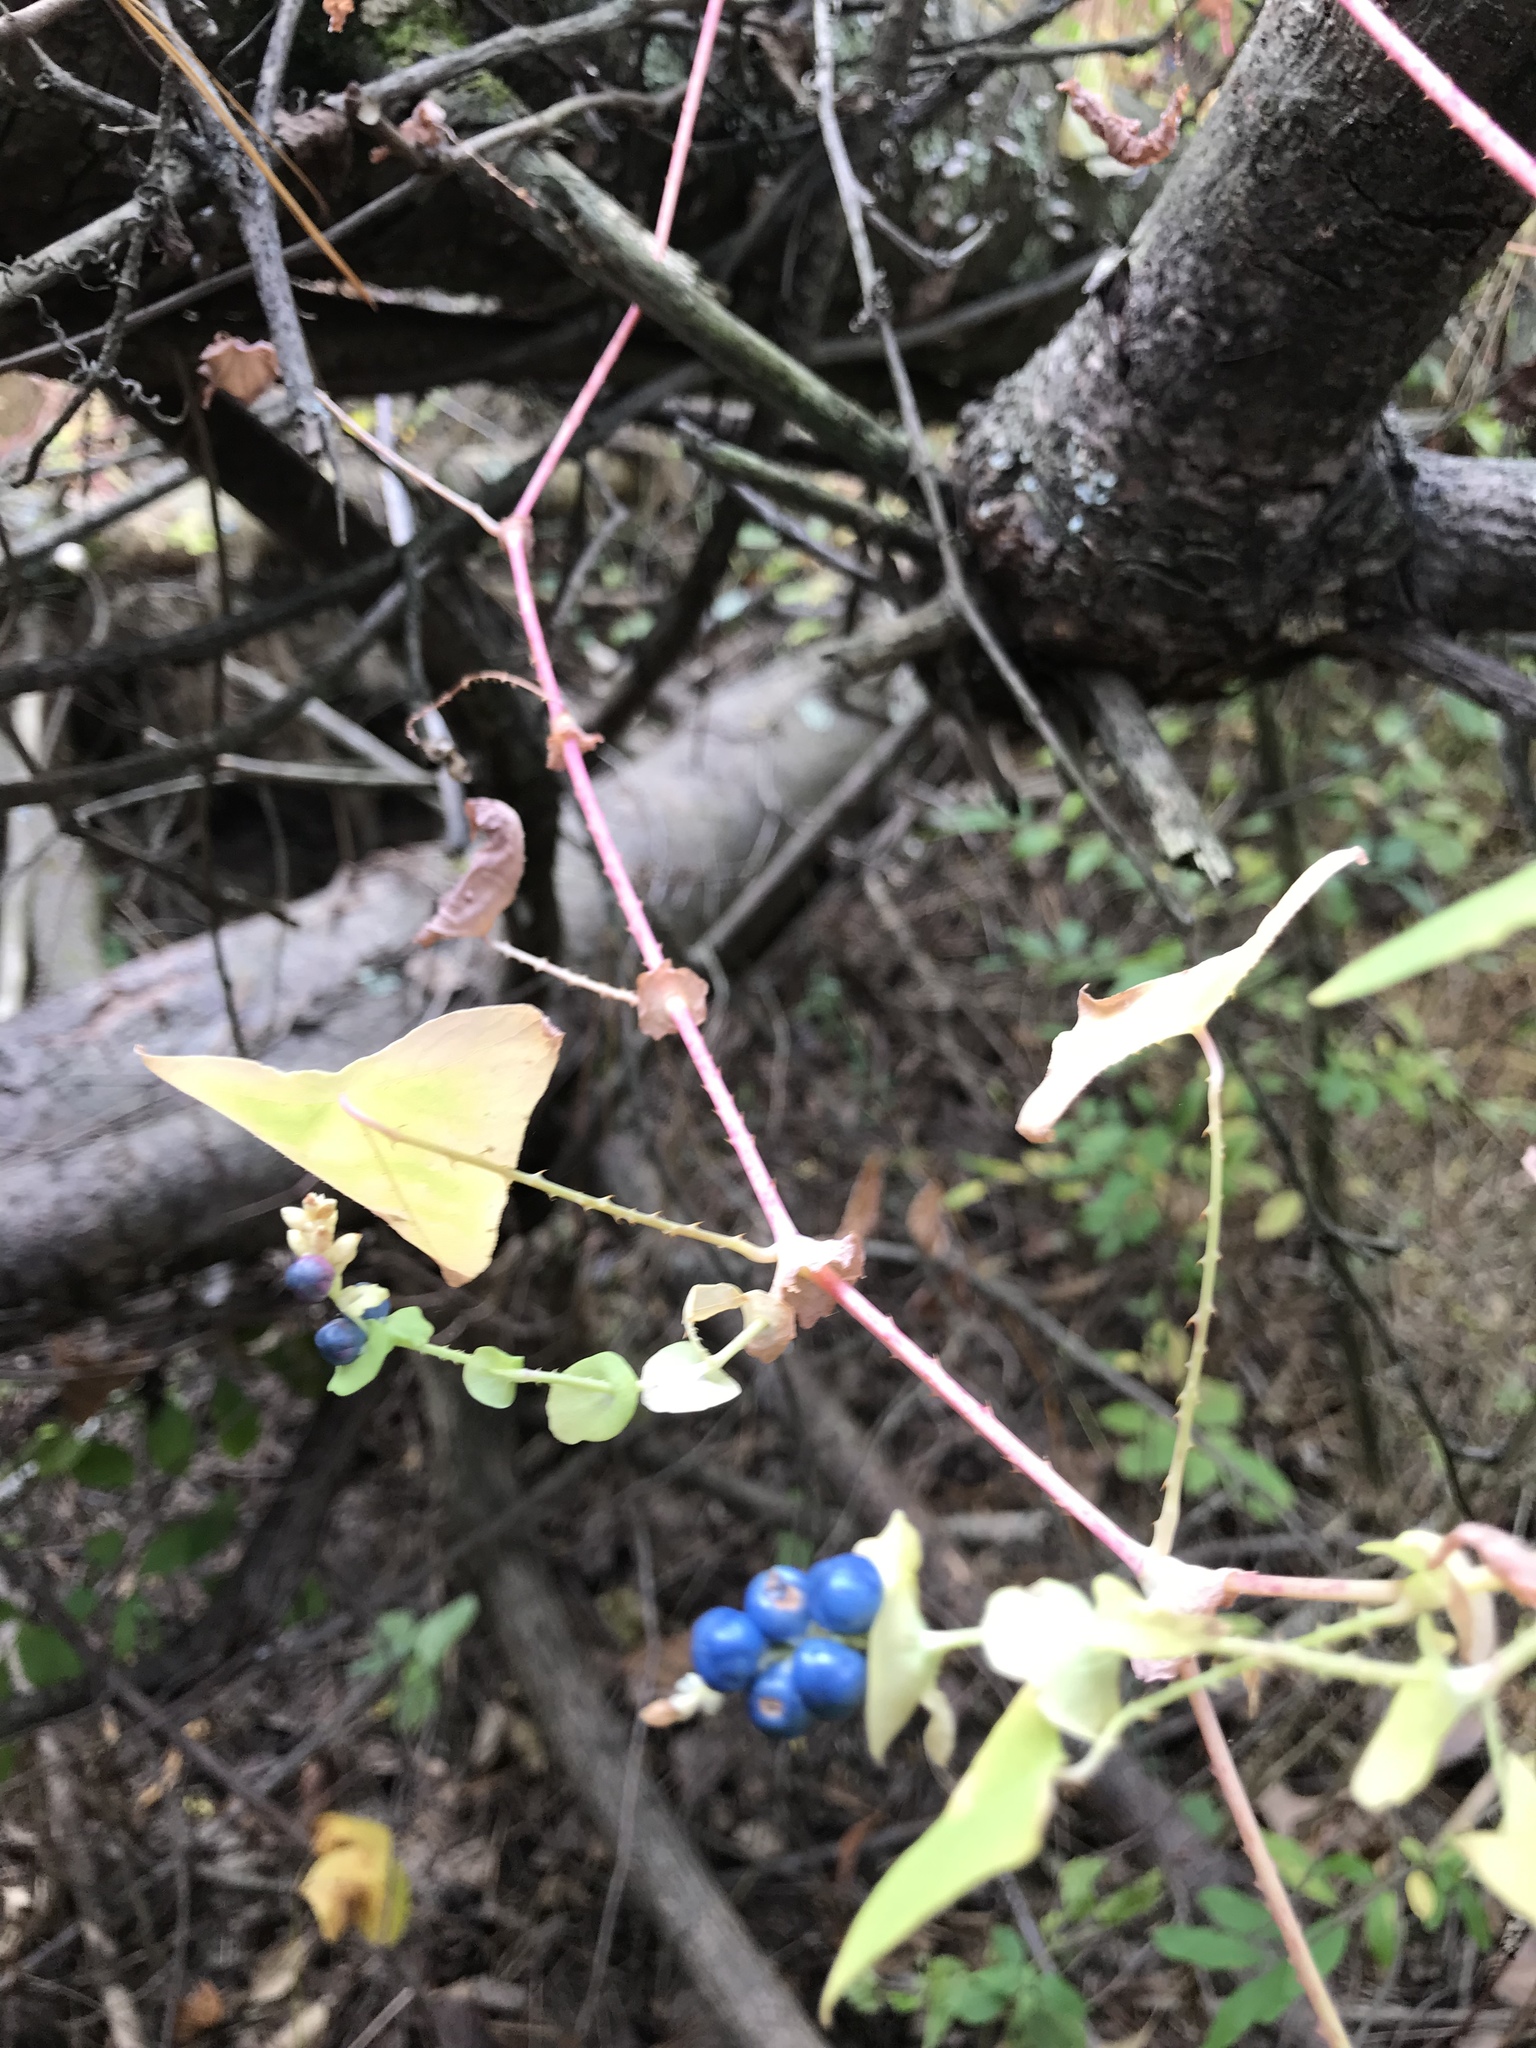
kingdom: Plantae
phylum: Tracheophyta
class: Magnoliopsida
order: Caryophyllales
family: Polygonaceae
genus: Persicaria
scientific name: Persicaria perfoliata
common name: Asiatic tearthumb
